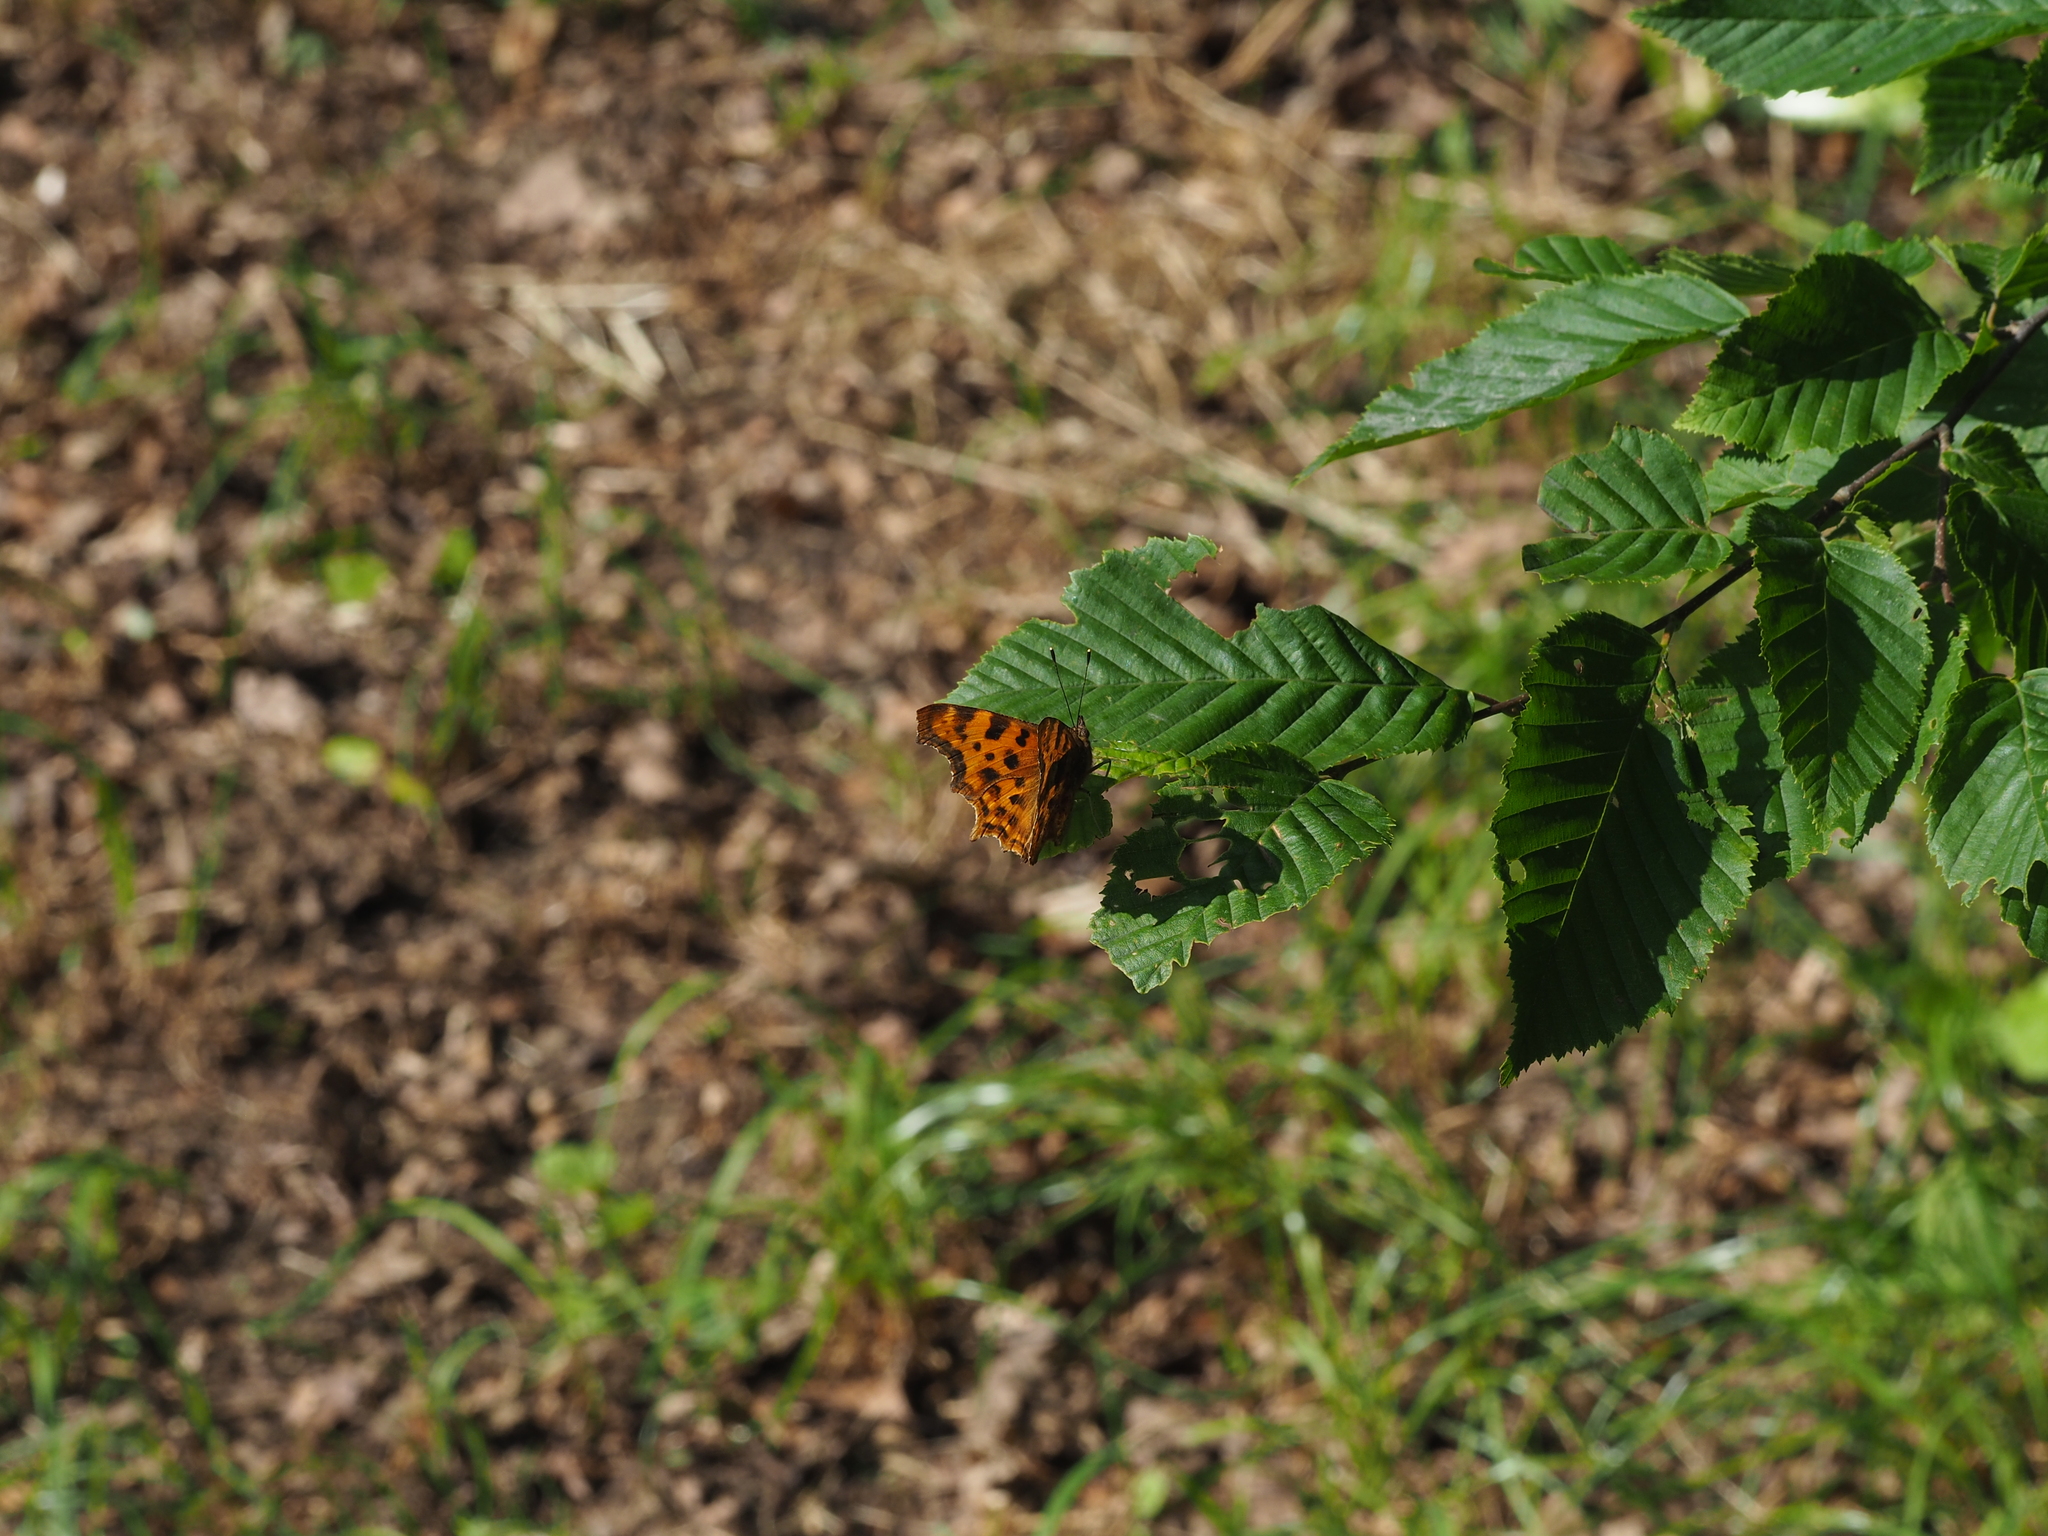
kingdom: Animalia
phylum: Arthropoda
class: Insecta
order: Lepidoptera
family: Nymphalidae
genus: Polygonia
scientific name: Polygonia c-album
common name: Comma
